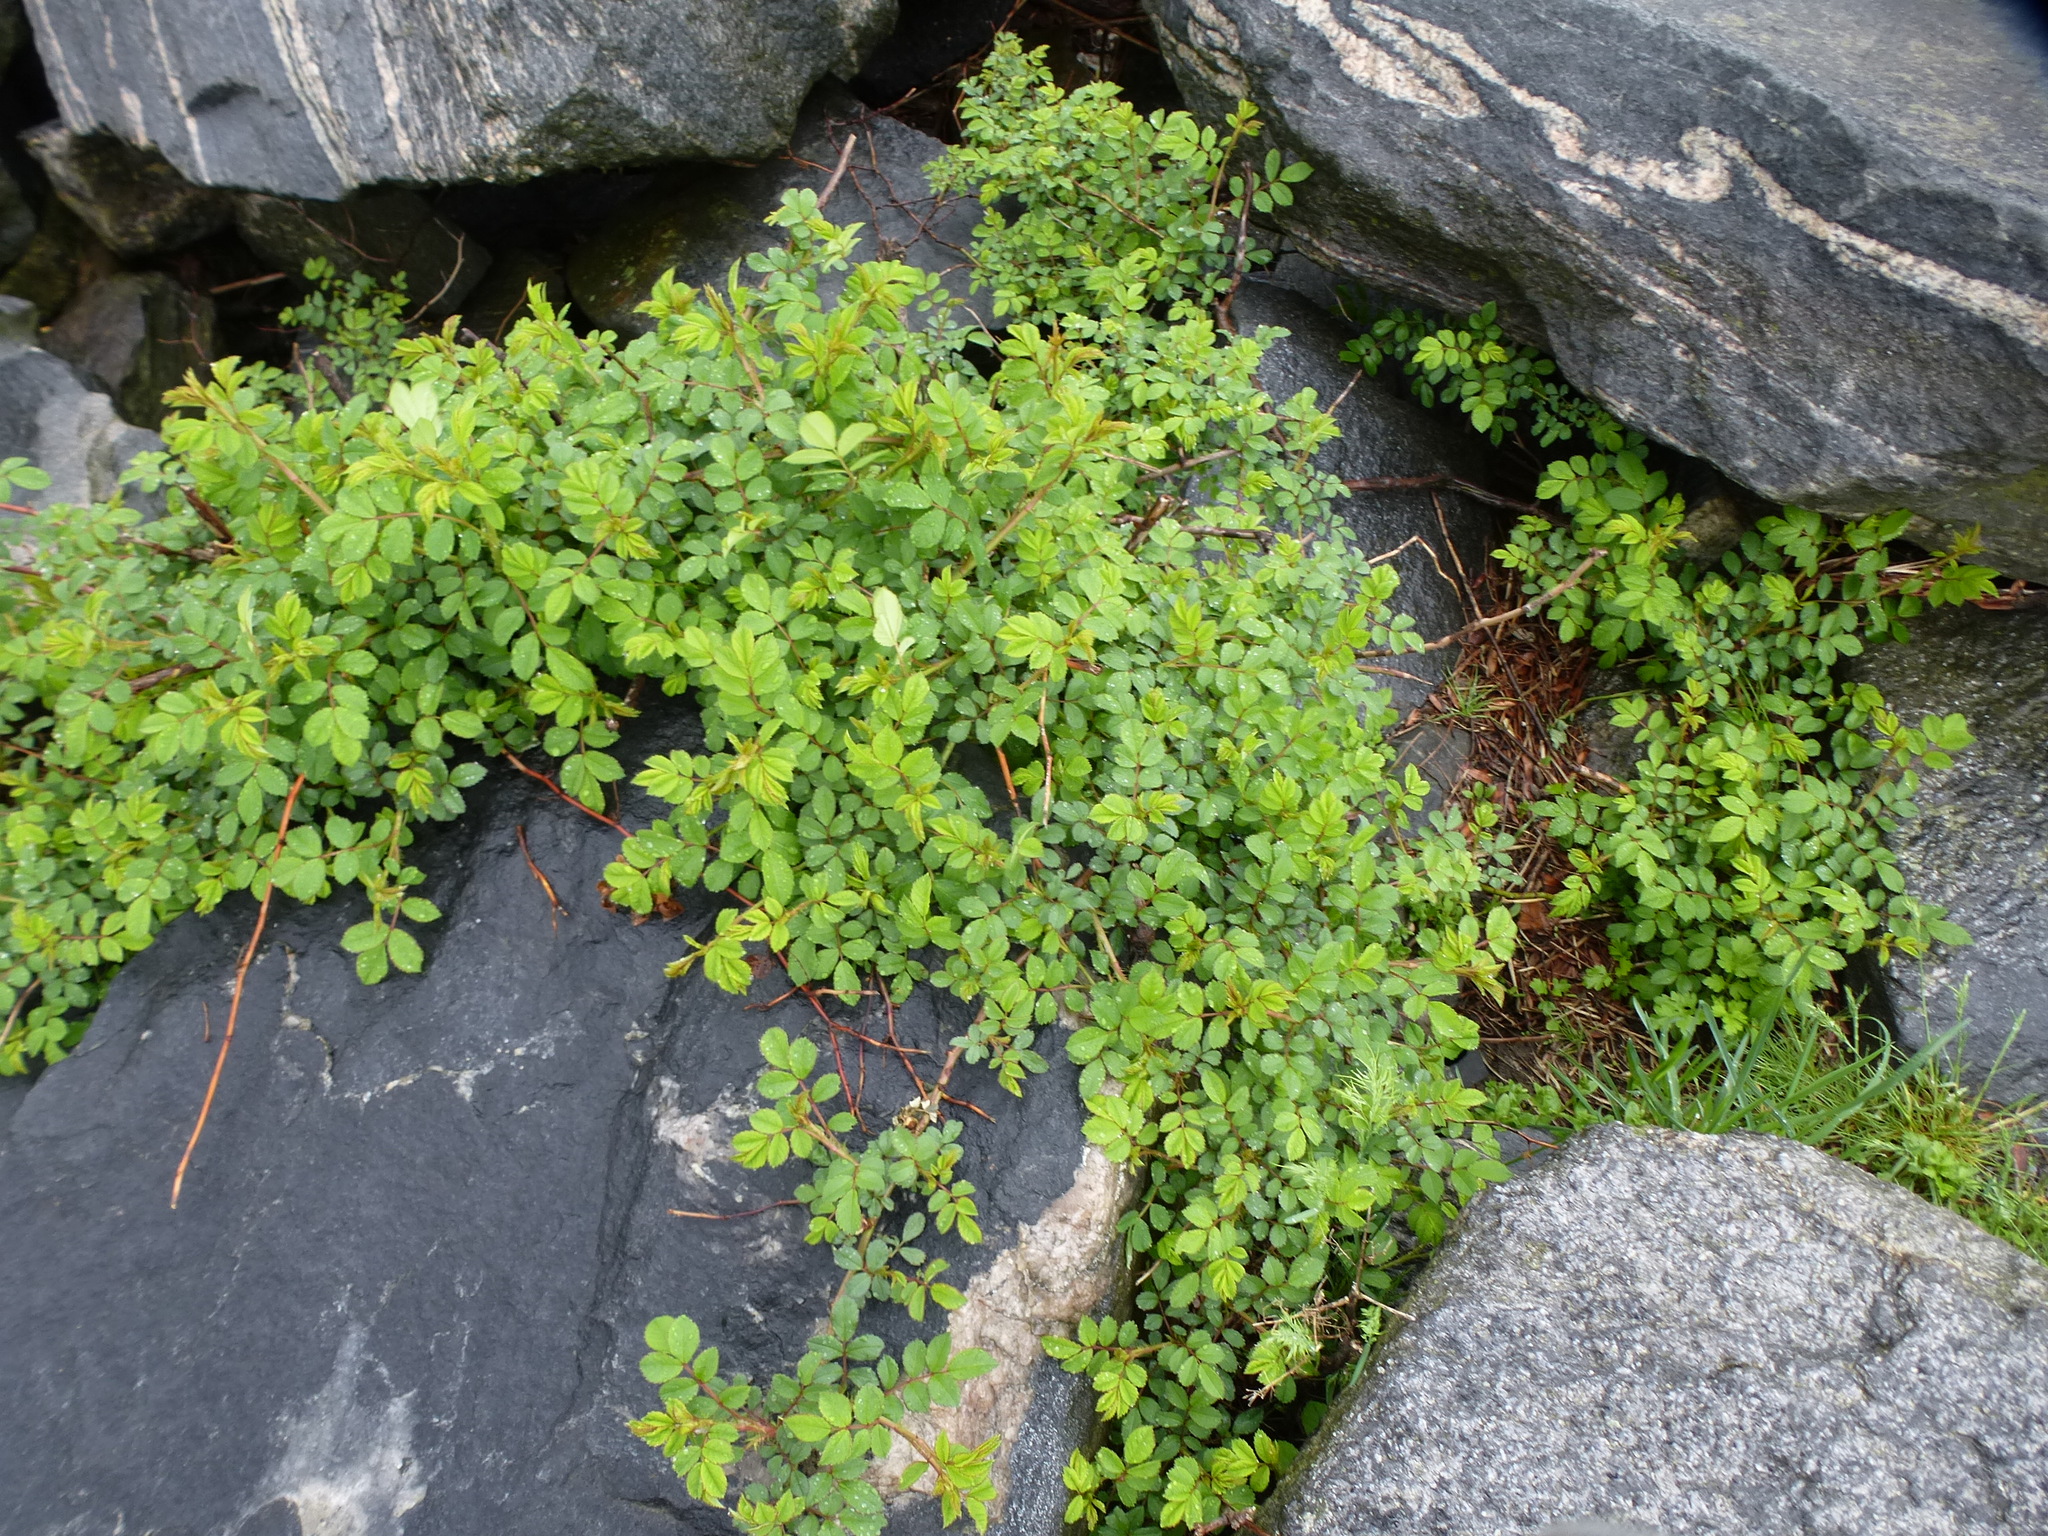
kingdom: Plantae
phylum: Tracheophyta
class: Magnoliopsida
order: Rosales
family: Rosaceae
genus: Rosa
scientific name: Rosa multiflora
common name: Multiflora rose
